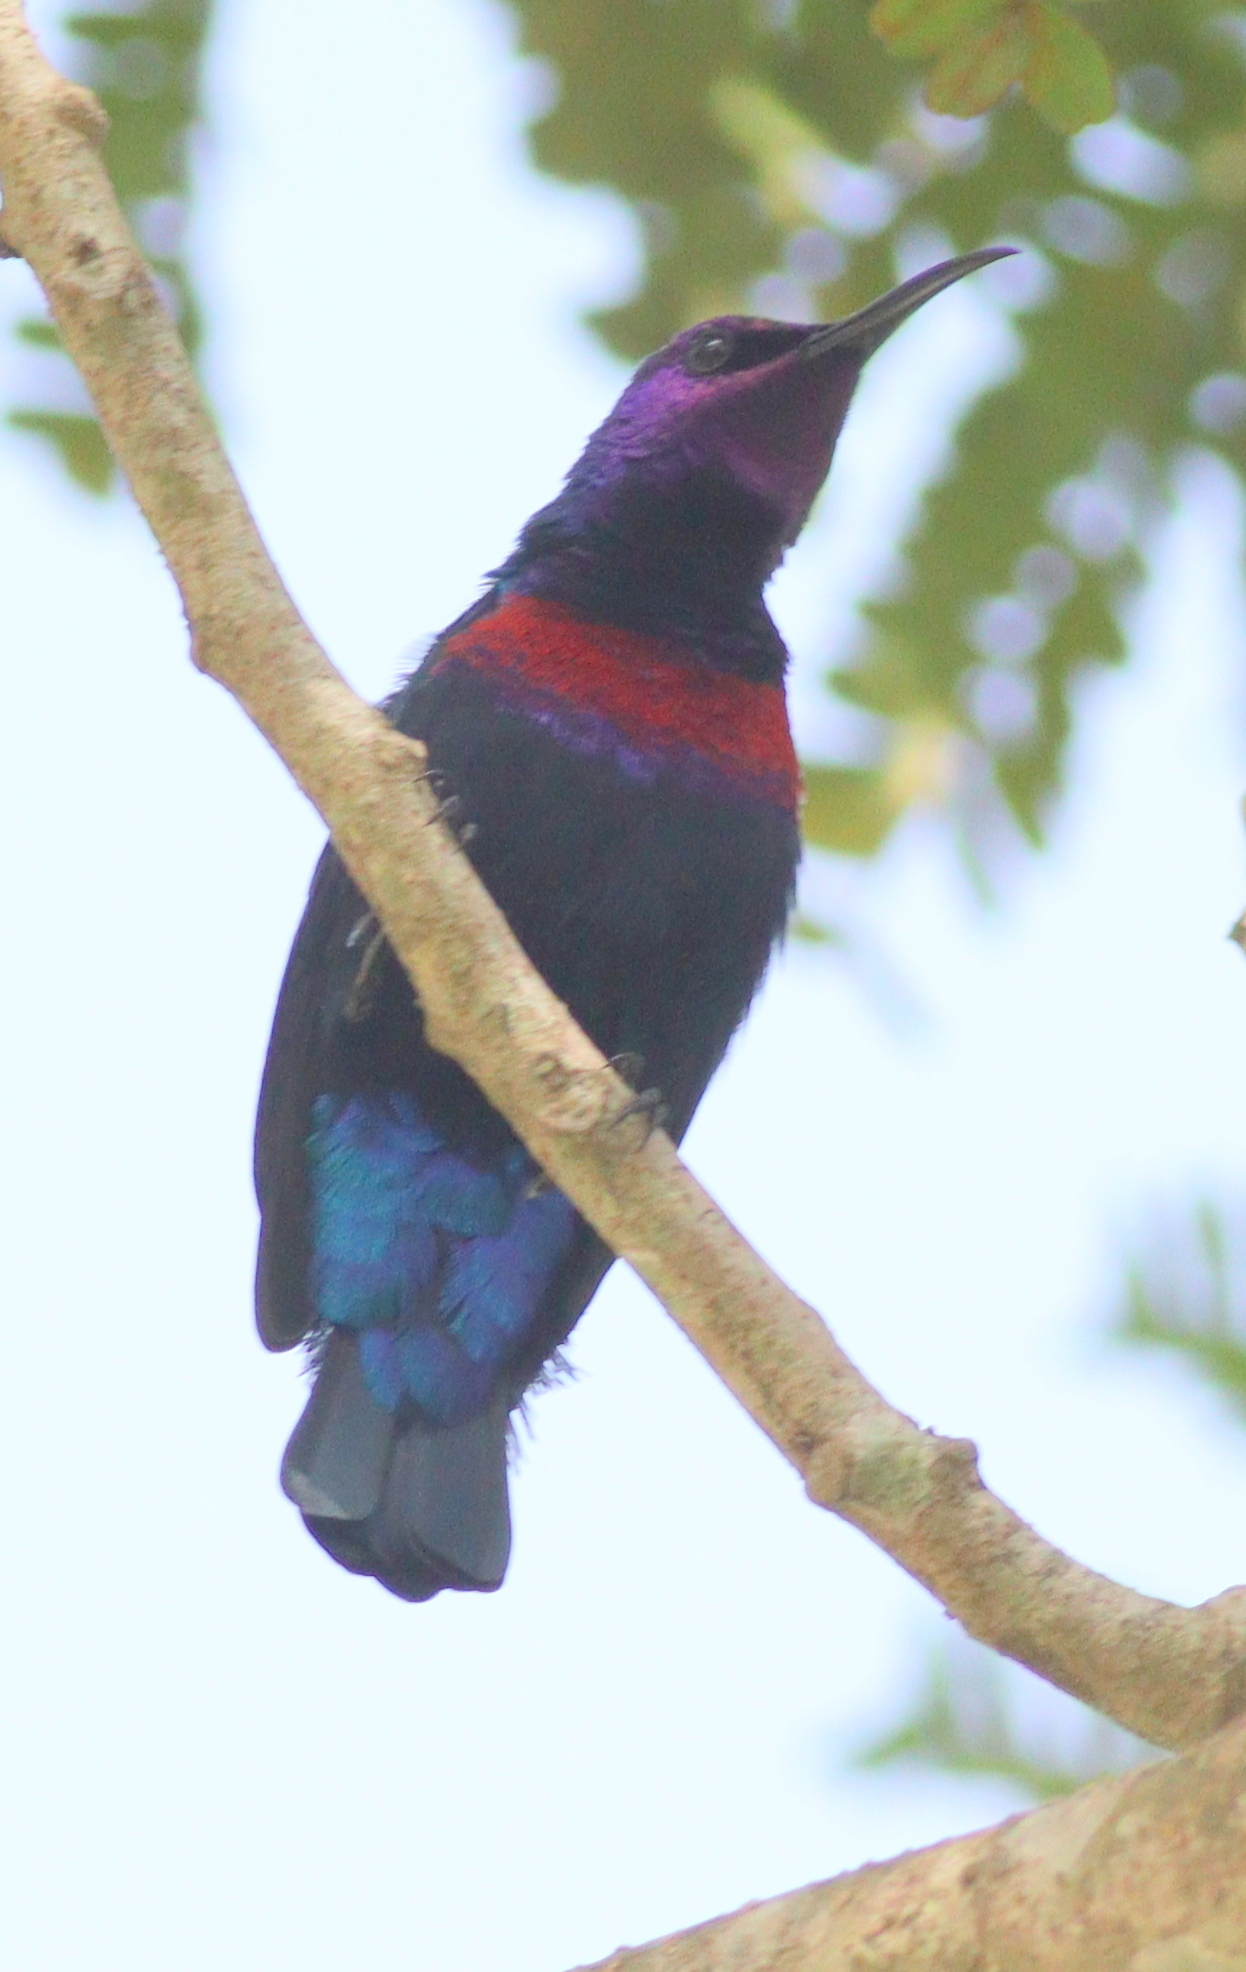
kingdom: Animalia
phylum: Chordata
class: Aves
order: Passeriformes
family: Nectariniidae
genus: Cinnyris
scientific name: Cinnyris coccinigastrus
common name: Splendid sunbird
